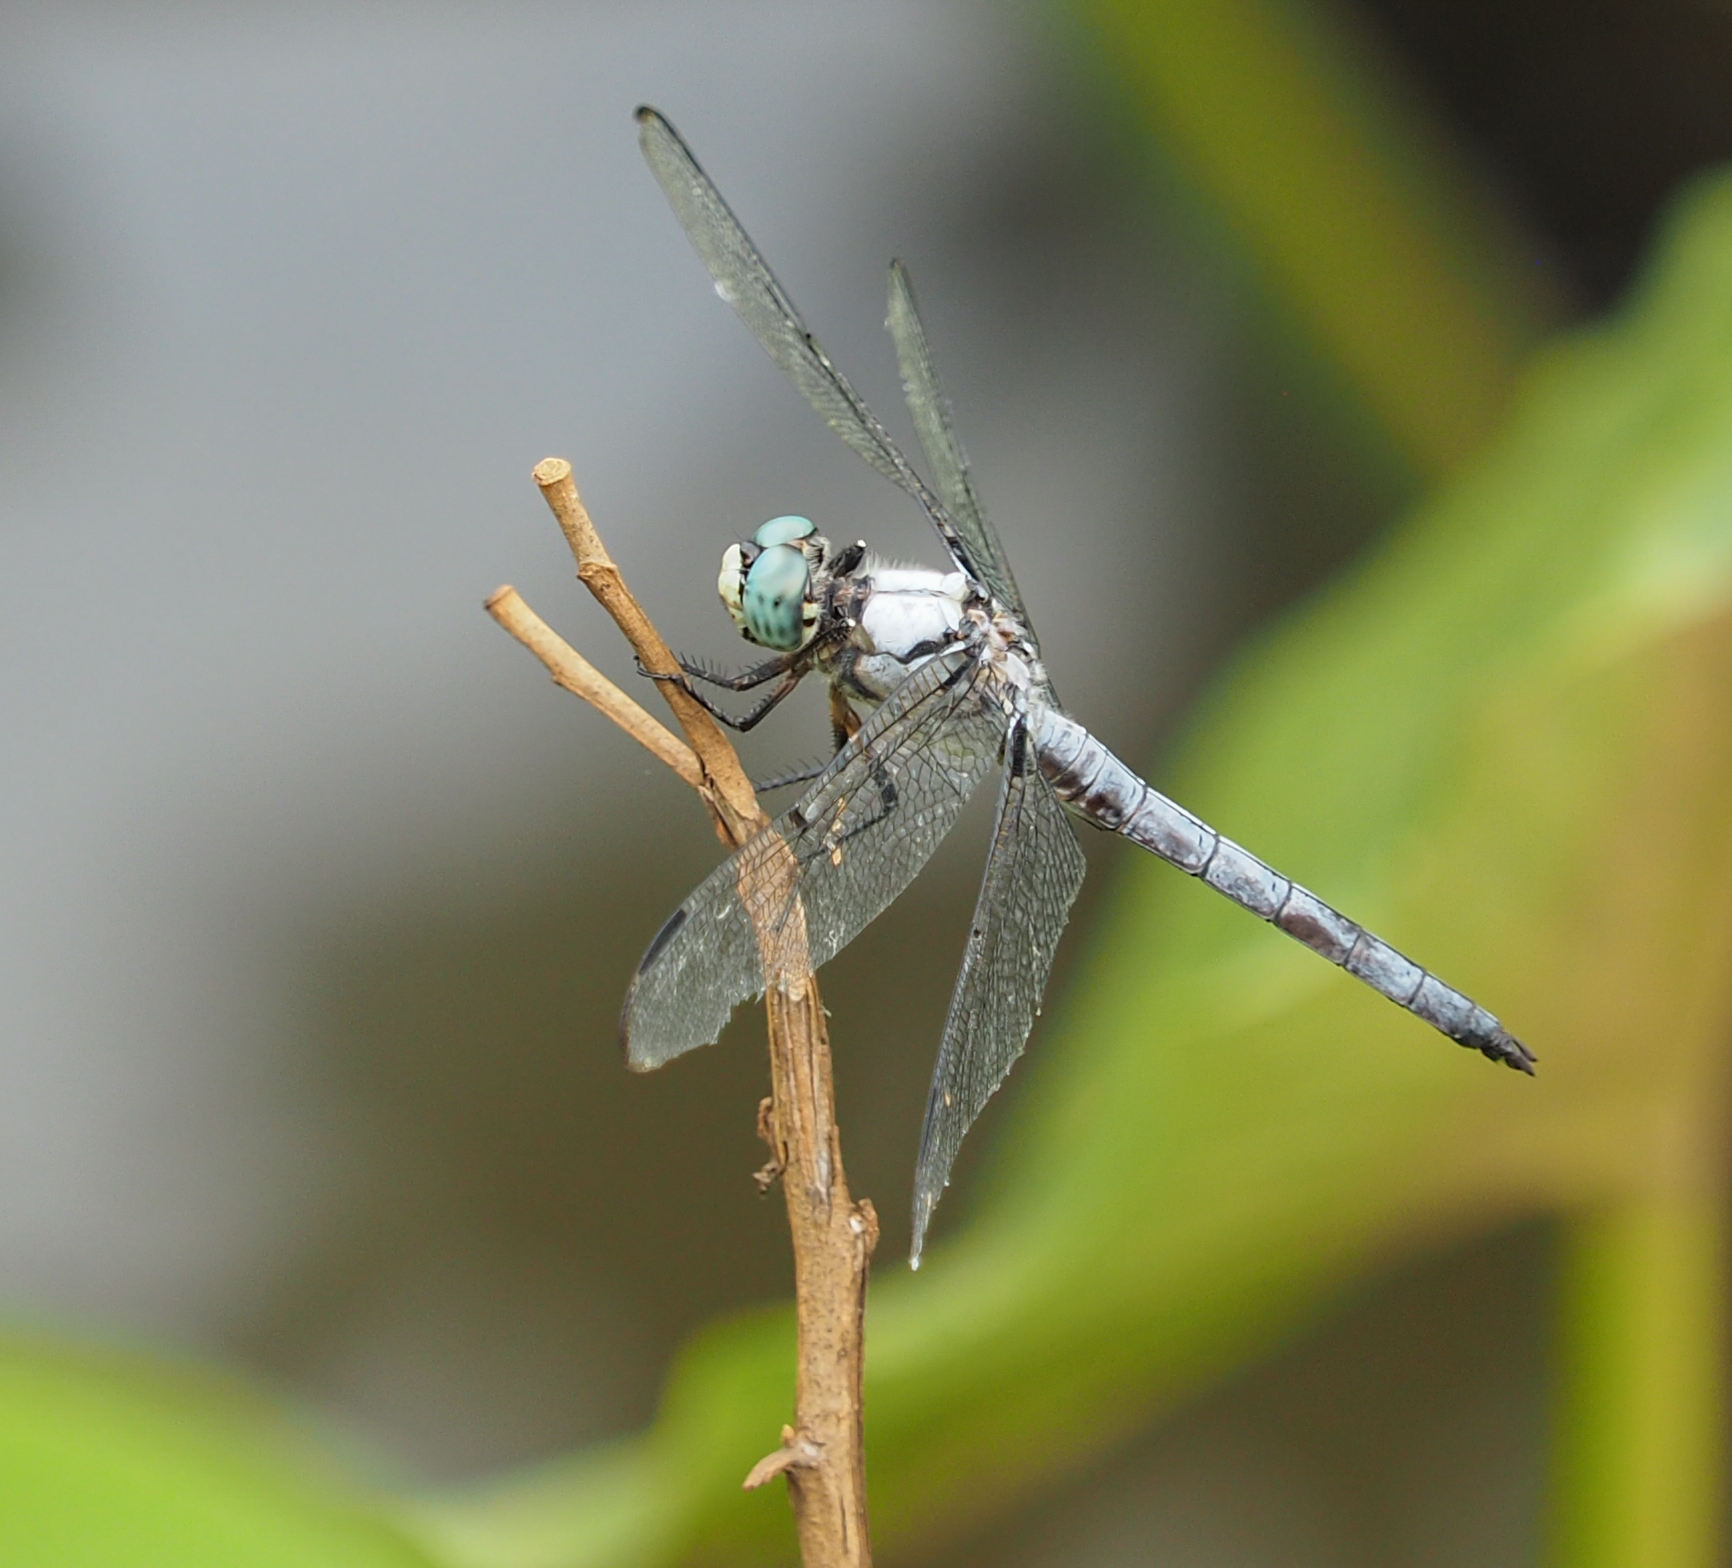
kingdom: Animalia
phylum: Arthropoda
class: Insecta
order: Odonata
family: Libellulidae
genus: Libellula
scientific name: Libellula vibrans
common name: Great blue skimmer
